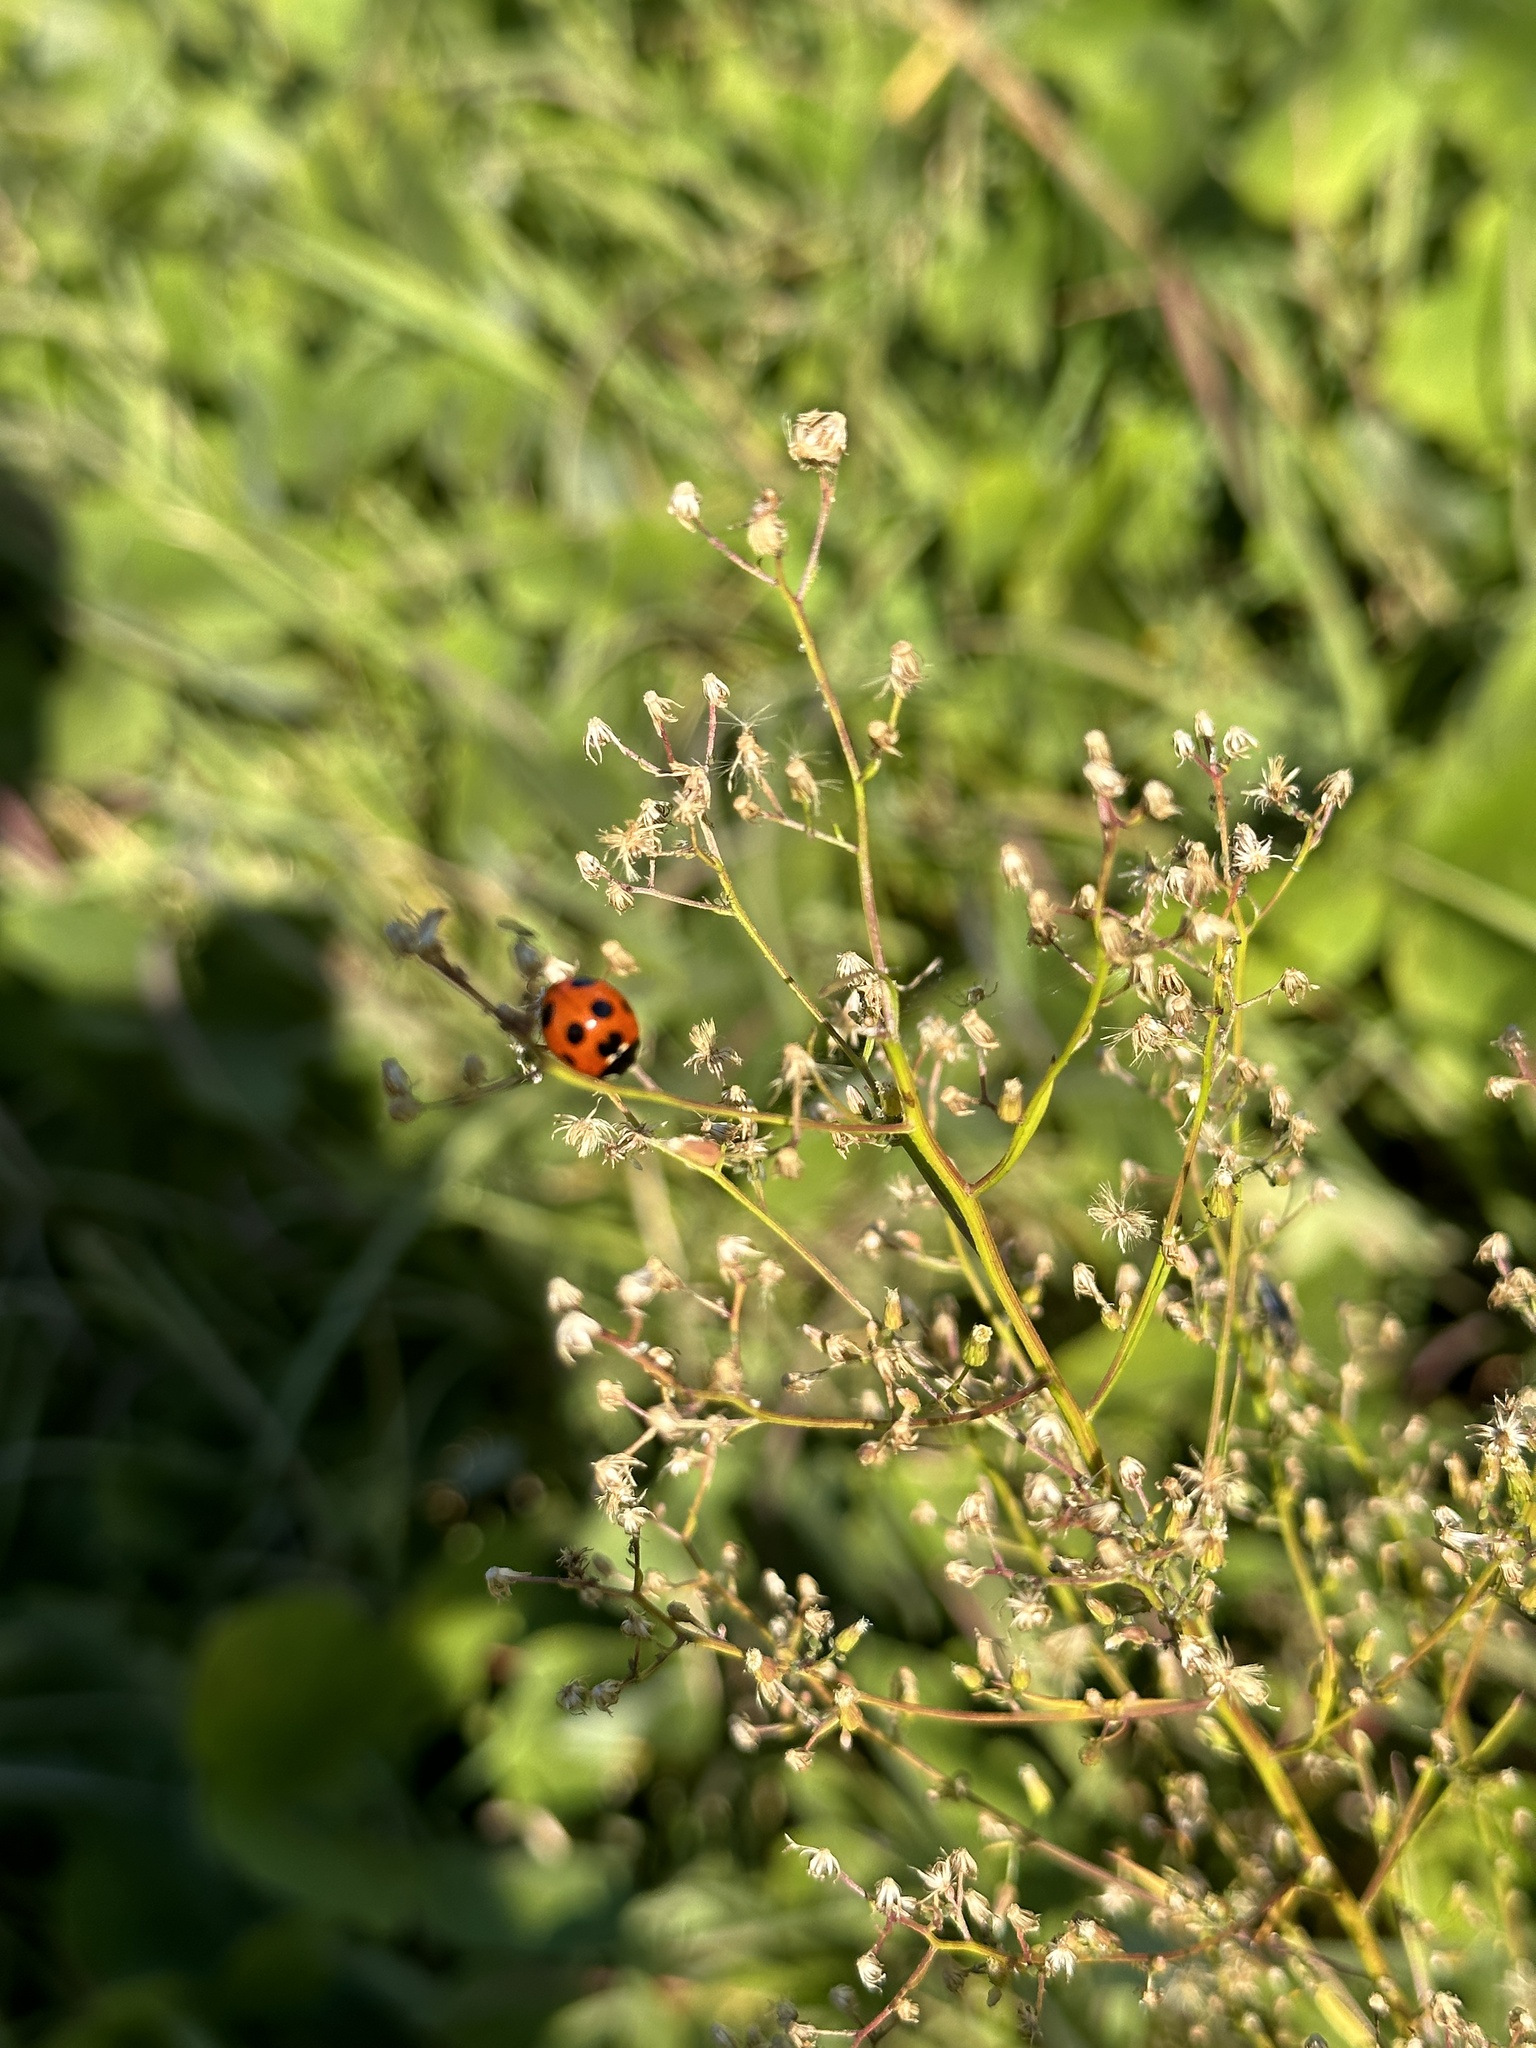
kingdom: Animalia
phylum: Arthropoda
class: Insecta
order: Coleoptera
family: Coccinellidae
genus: Coccinella
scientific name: Coccinella septempunctata
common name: Sevenspotted lady beetle
